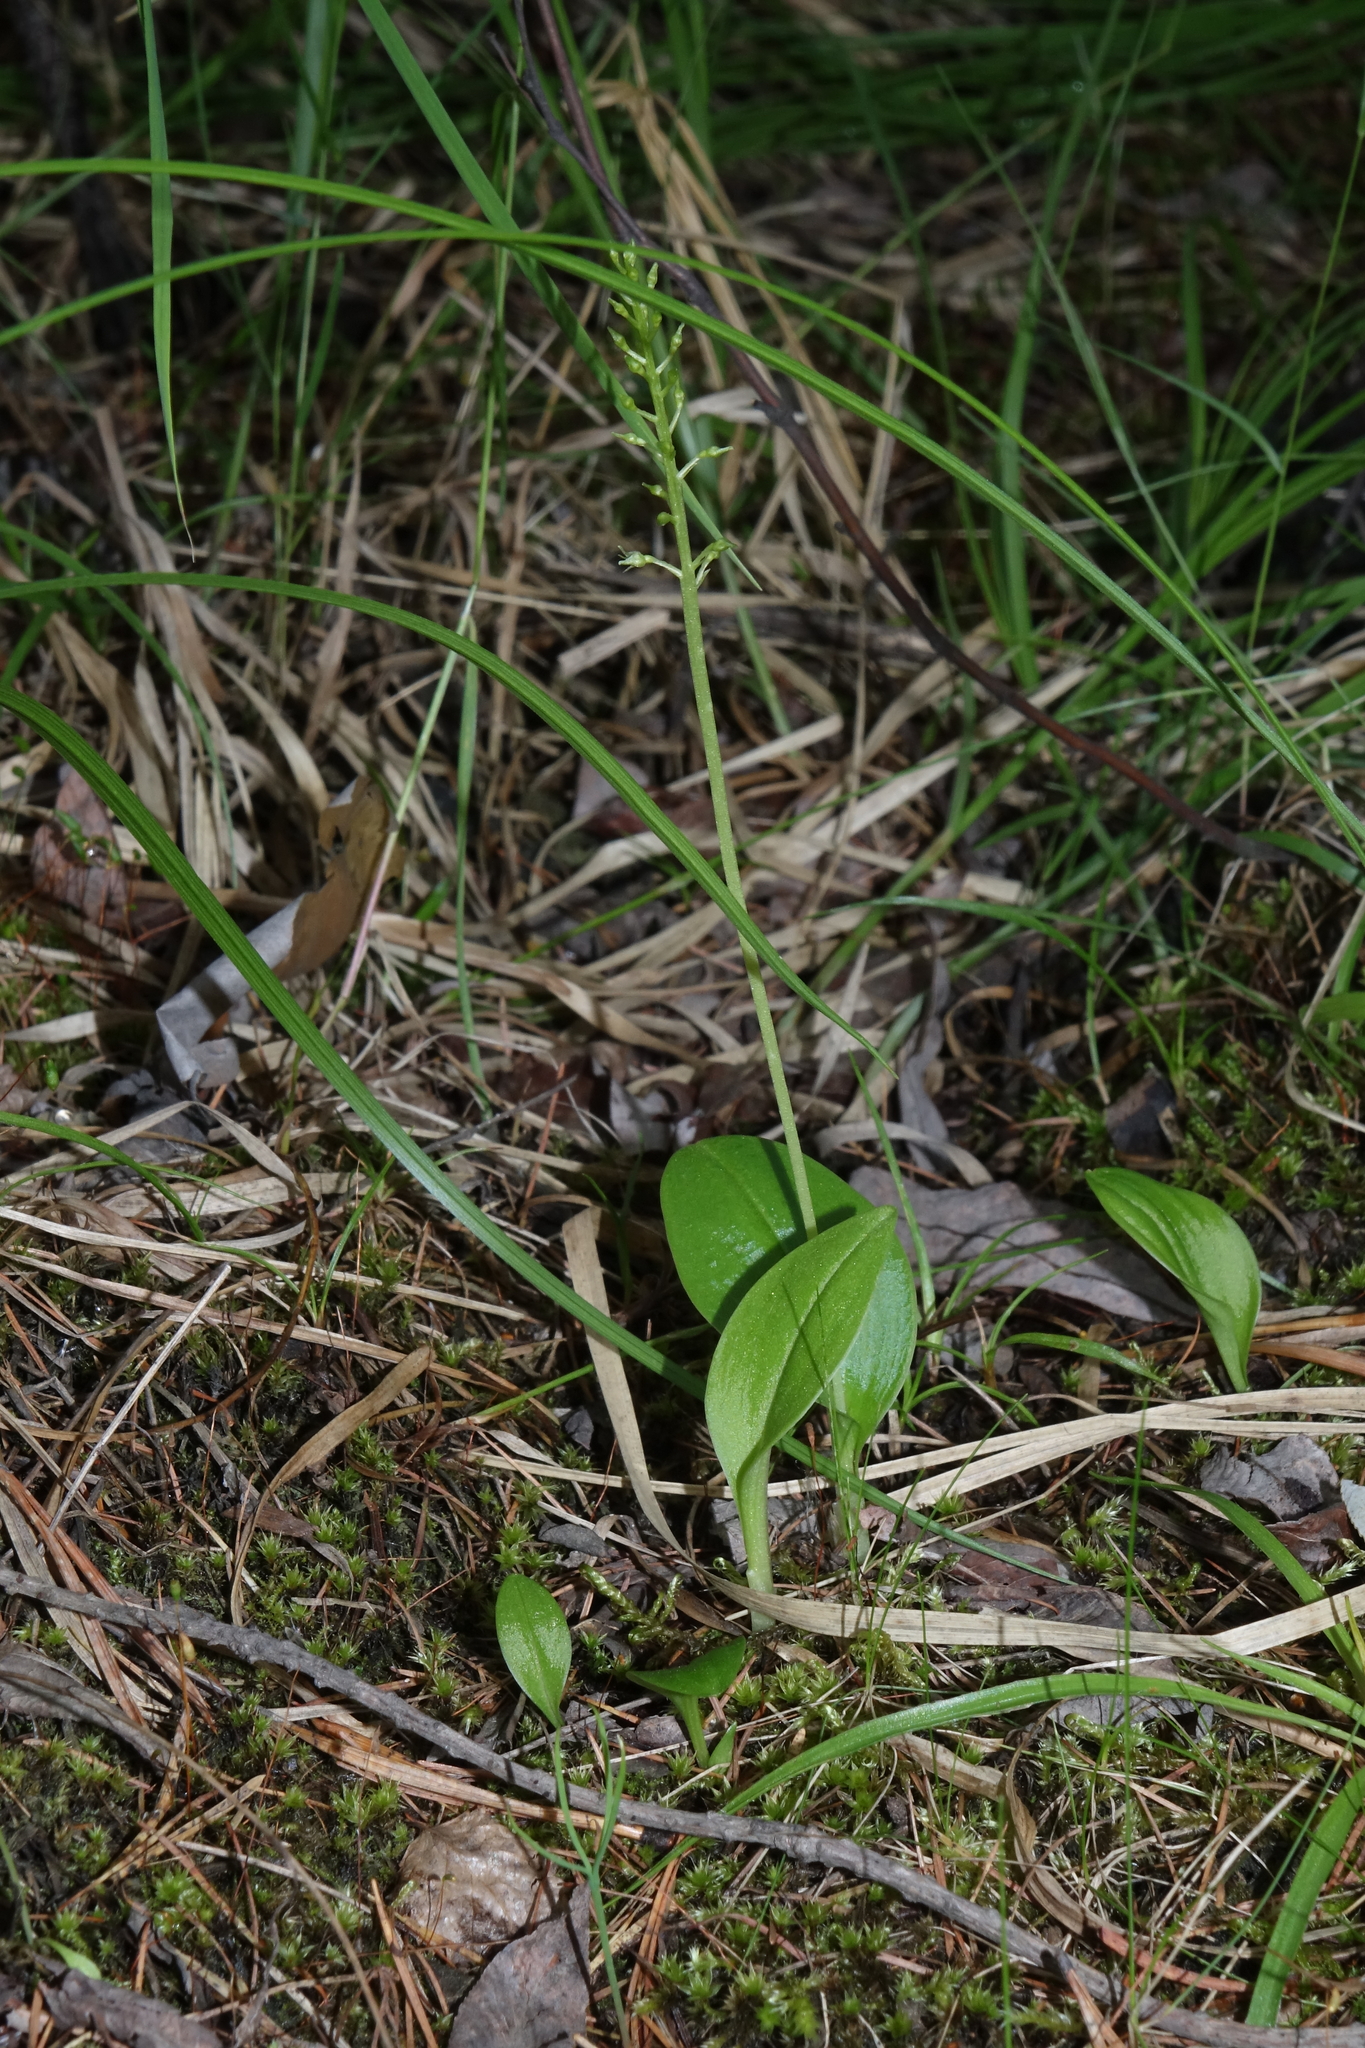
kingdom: Plantae
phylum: Tracheophyta
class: Liliopsida
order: Asparagales
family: Orchidaceae
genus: Malaxis
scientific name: Malaxis monophyllos
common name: White adder's-mouth
